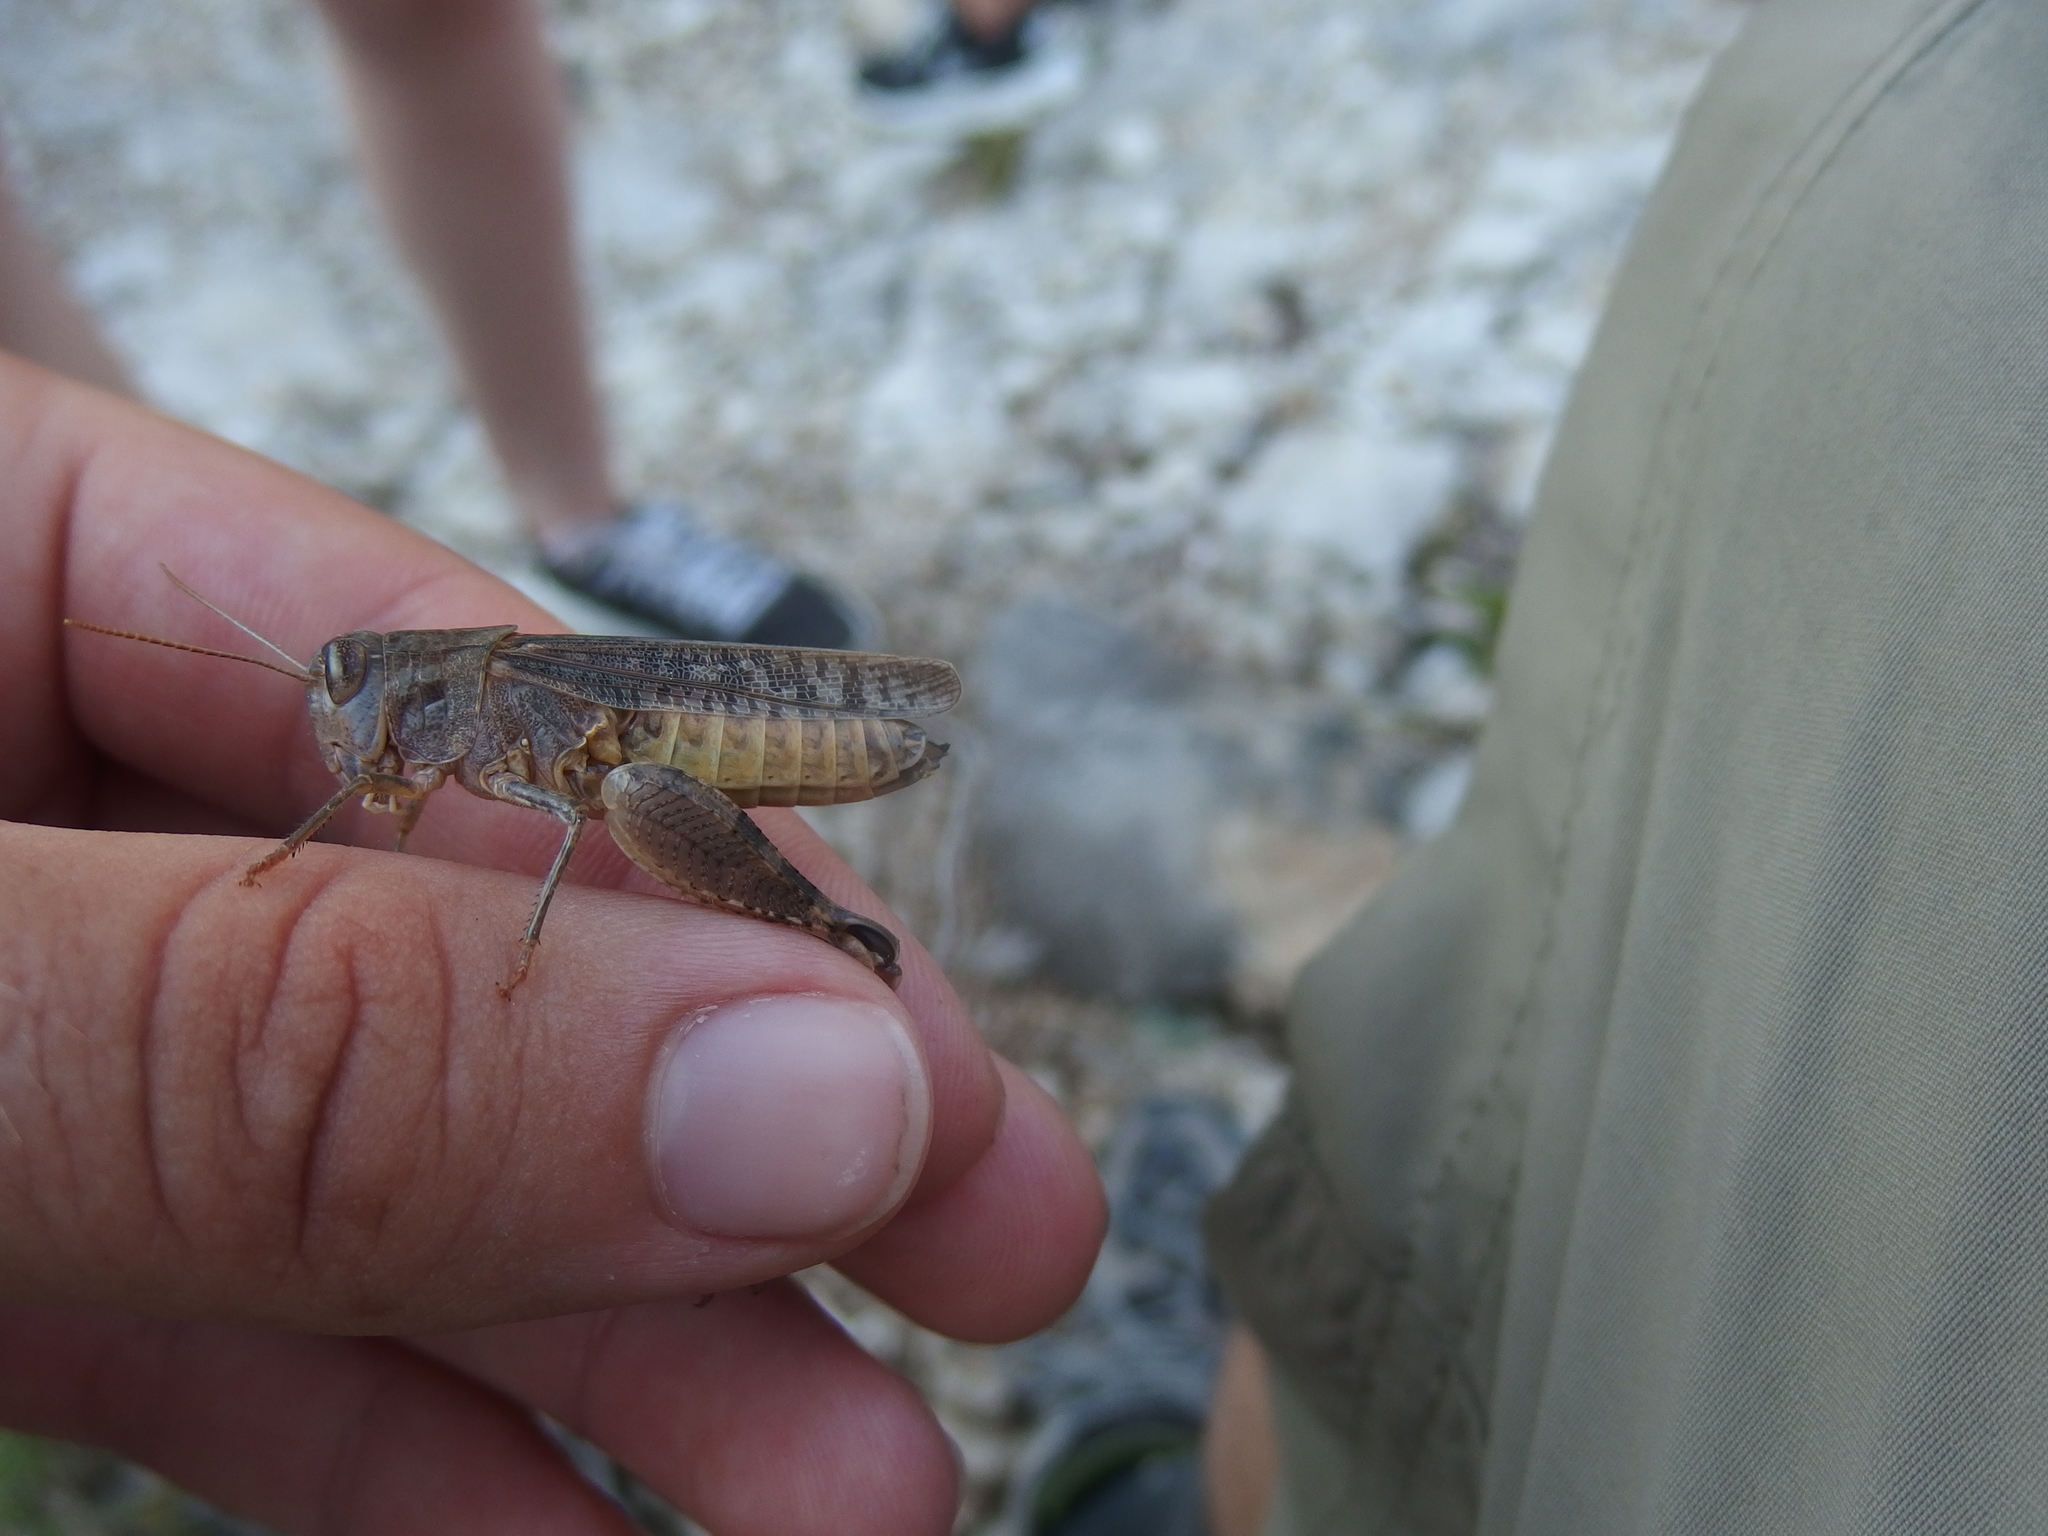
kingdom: Animalia
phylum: Arthropoda
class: Insecta
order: Orthoptera
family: Acrididae
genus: Calliptamus
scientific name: Calliptamus italicus
